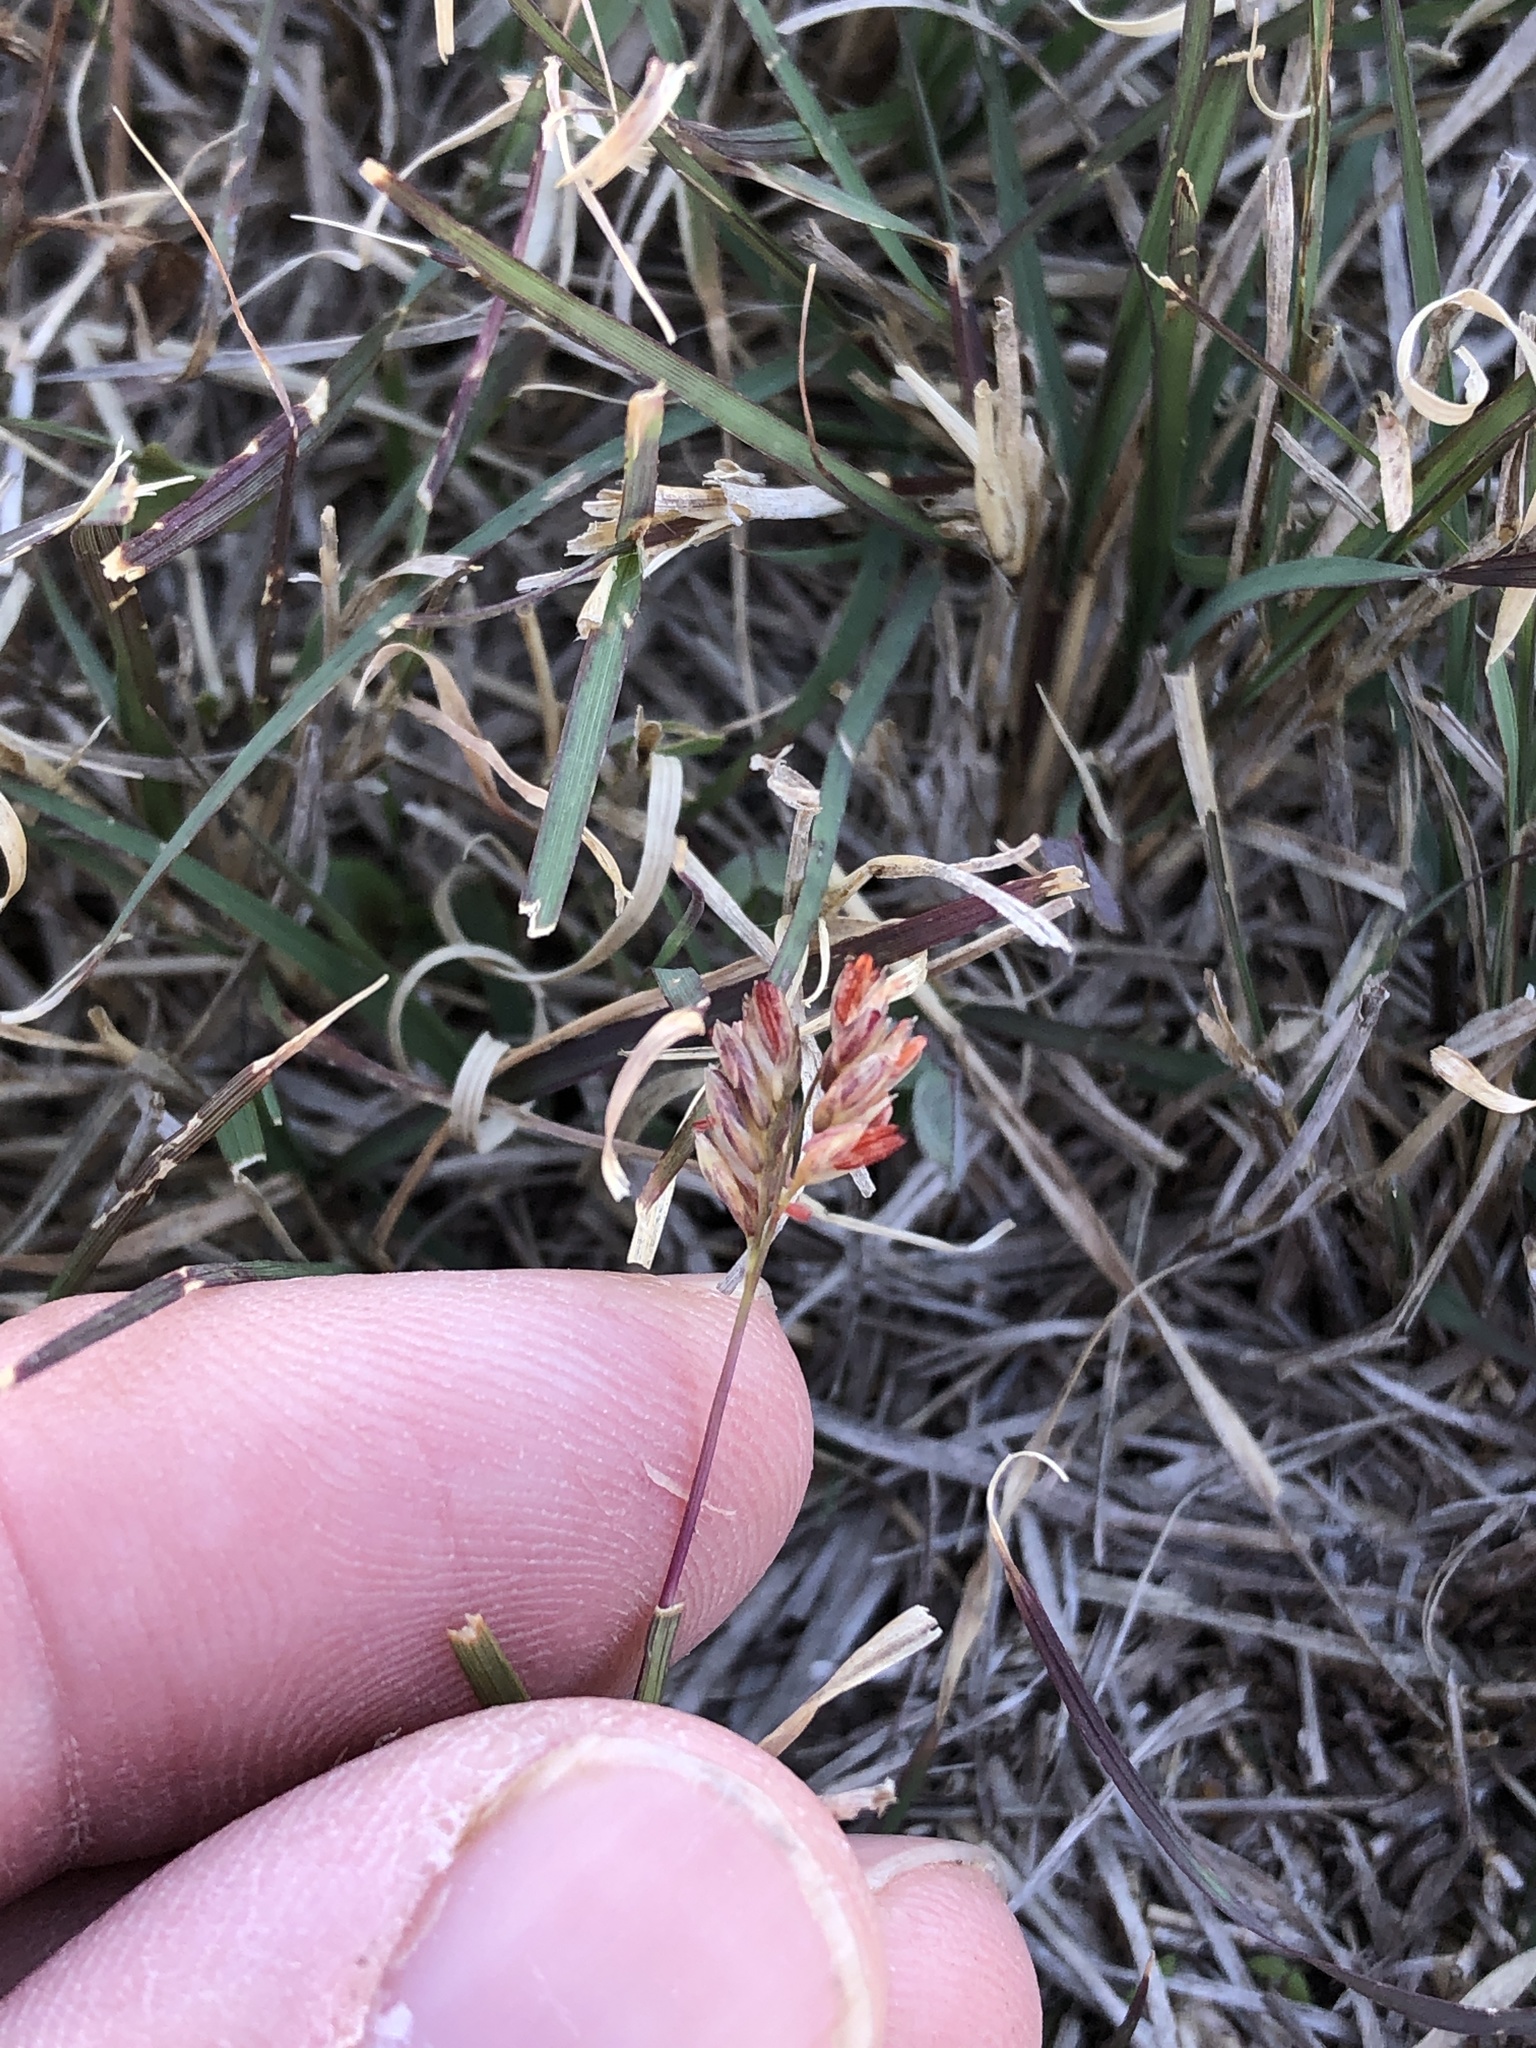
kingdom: Plantae
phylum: Tracheophyta
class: Liliopsida
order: Poales
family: Poaceae
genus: Bouteloua
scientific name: Bouteloua dactyloides
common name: Buffalo grass
